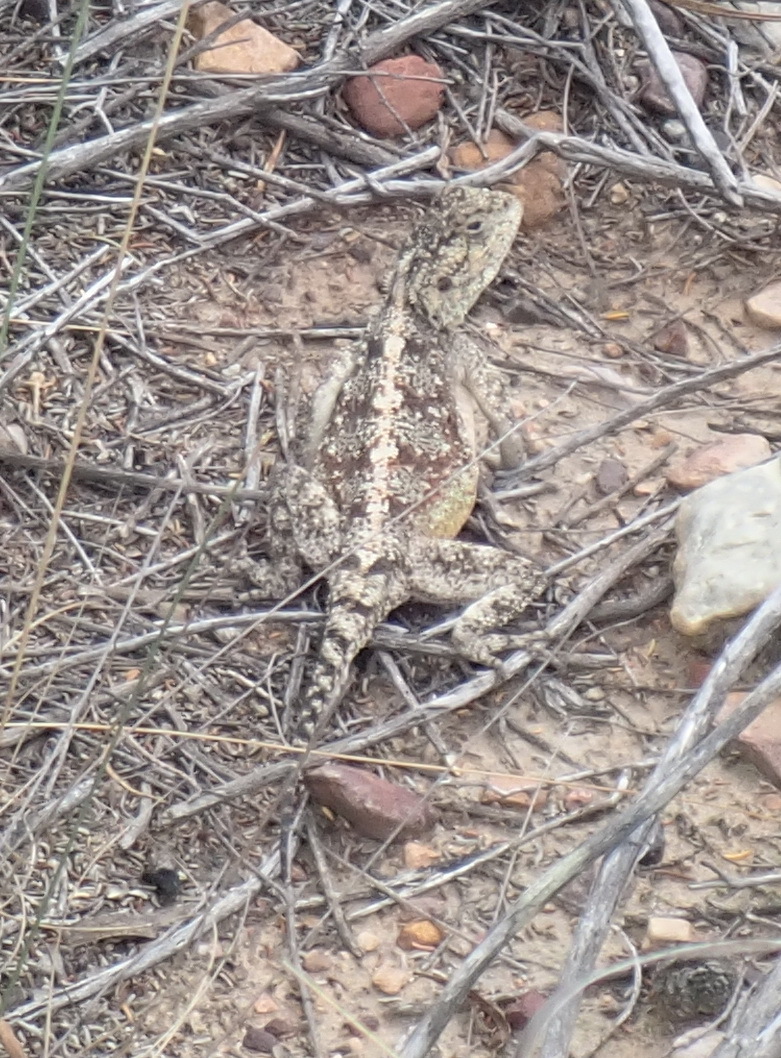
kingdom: Animalia
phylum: Chordata
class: Squamata
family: Agamidae
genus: Agama
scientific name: Agama atra
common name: Southern african rock agama
